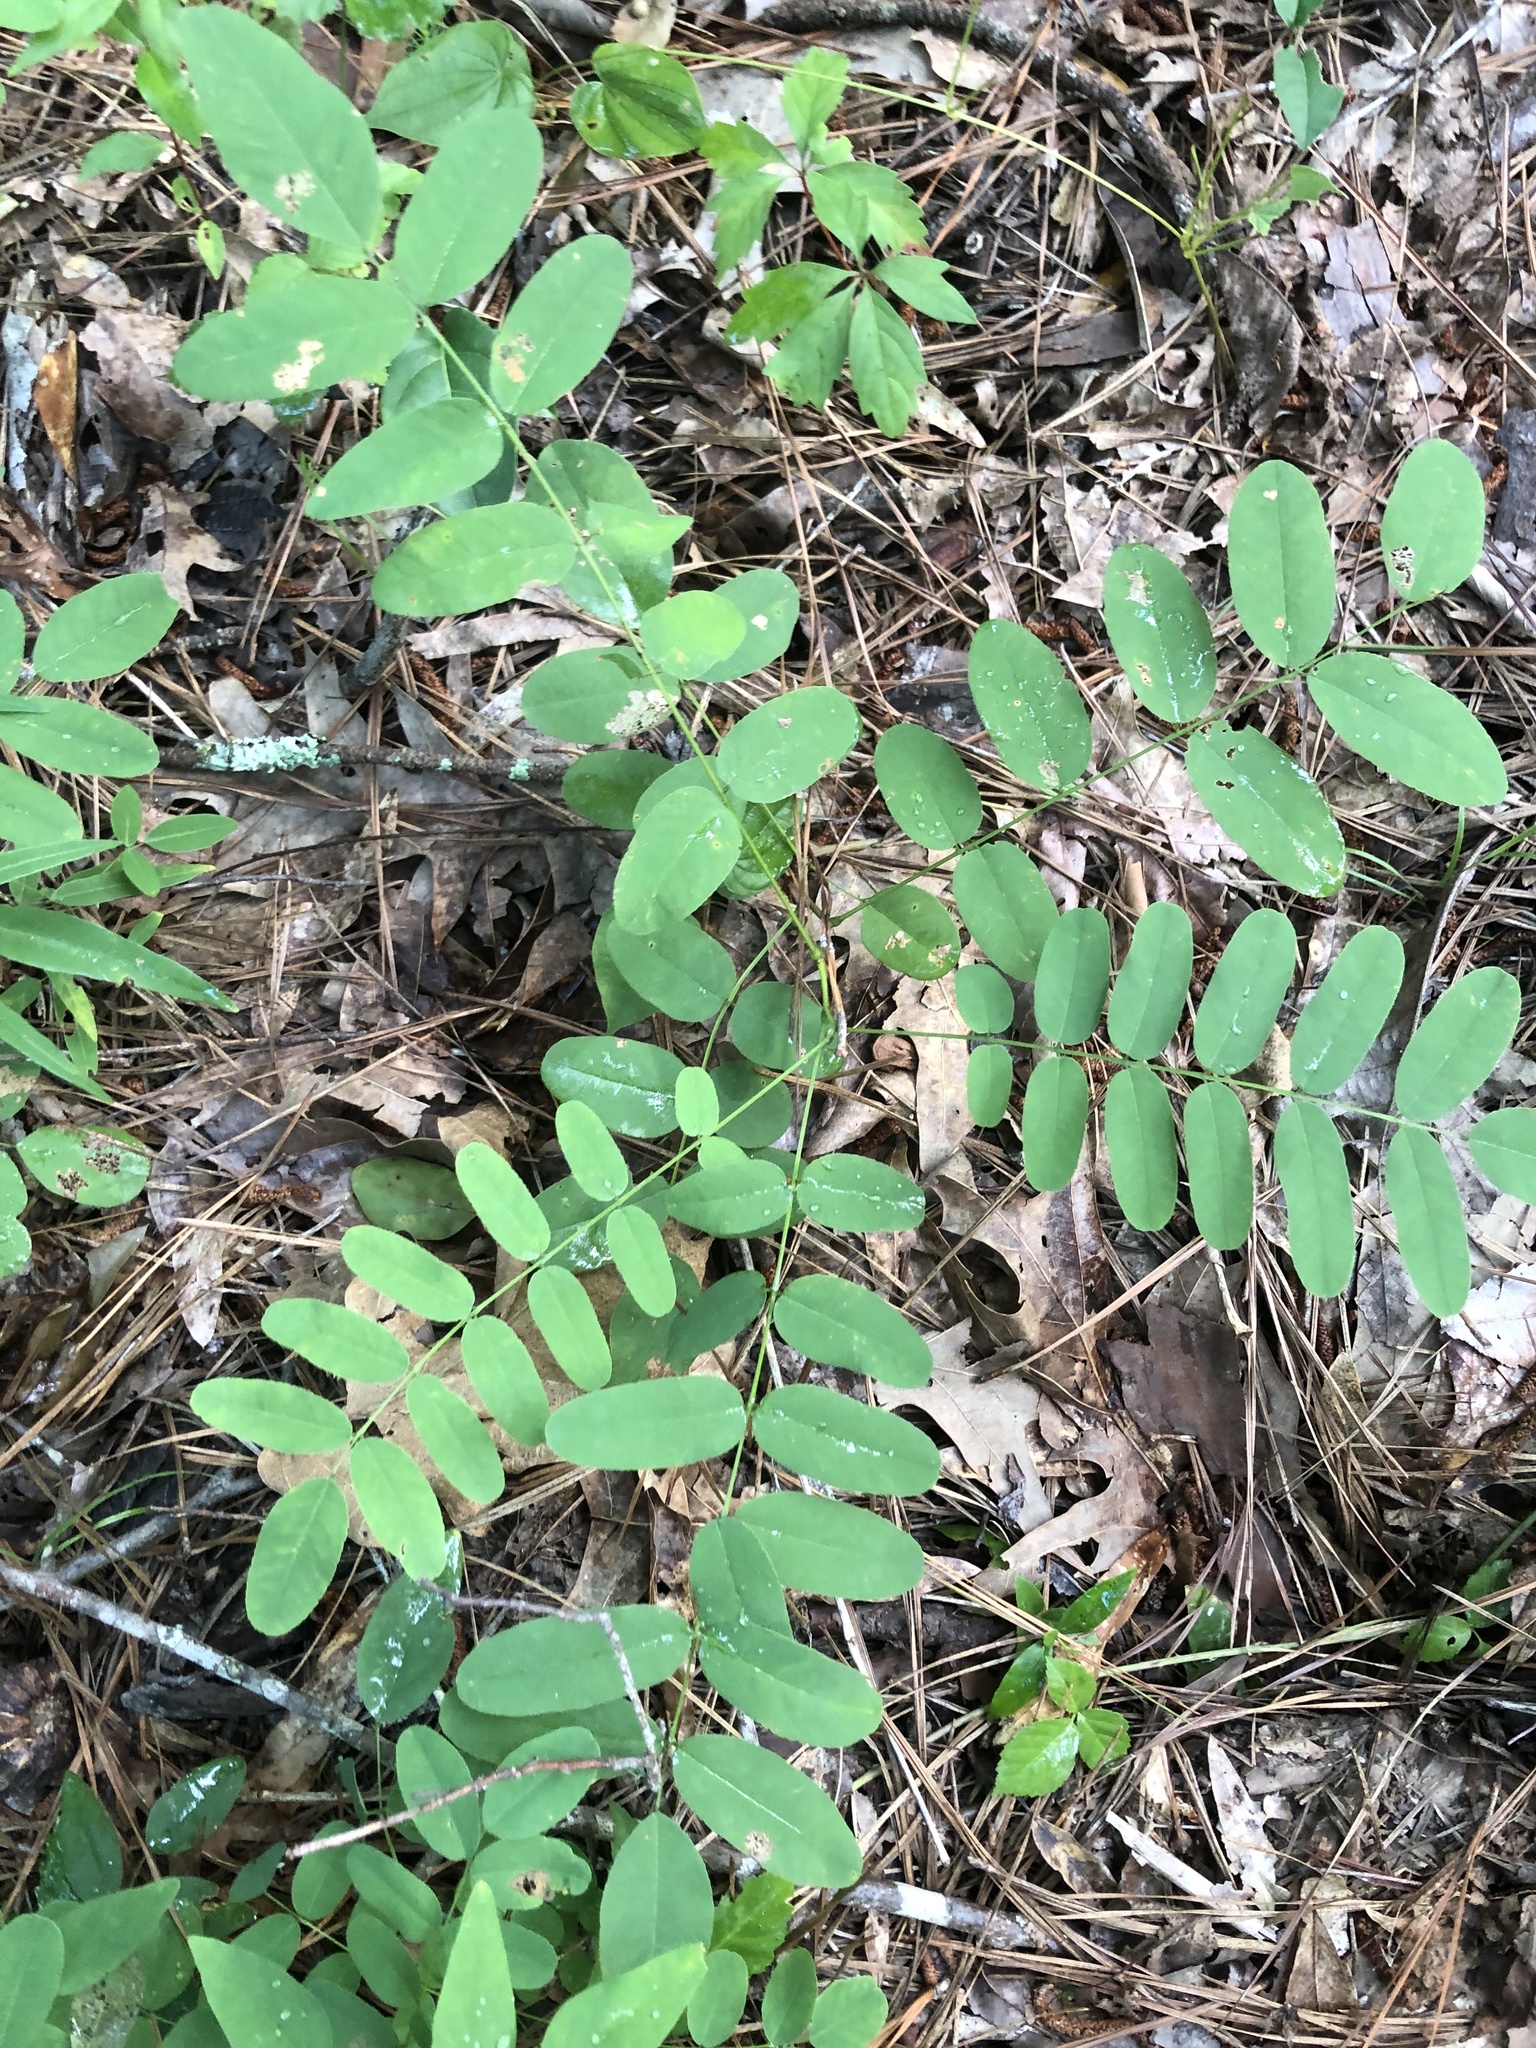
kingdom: Plantae
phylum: Tracheophyta
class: Magnoliopsida
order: Fabales
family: Fabaceae
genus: Amorpha
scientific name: Amorpha fruticosa
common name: False indigo
